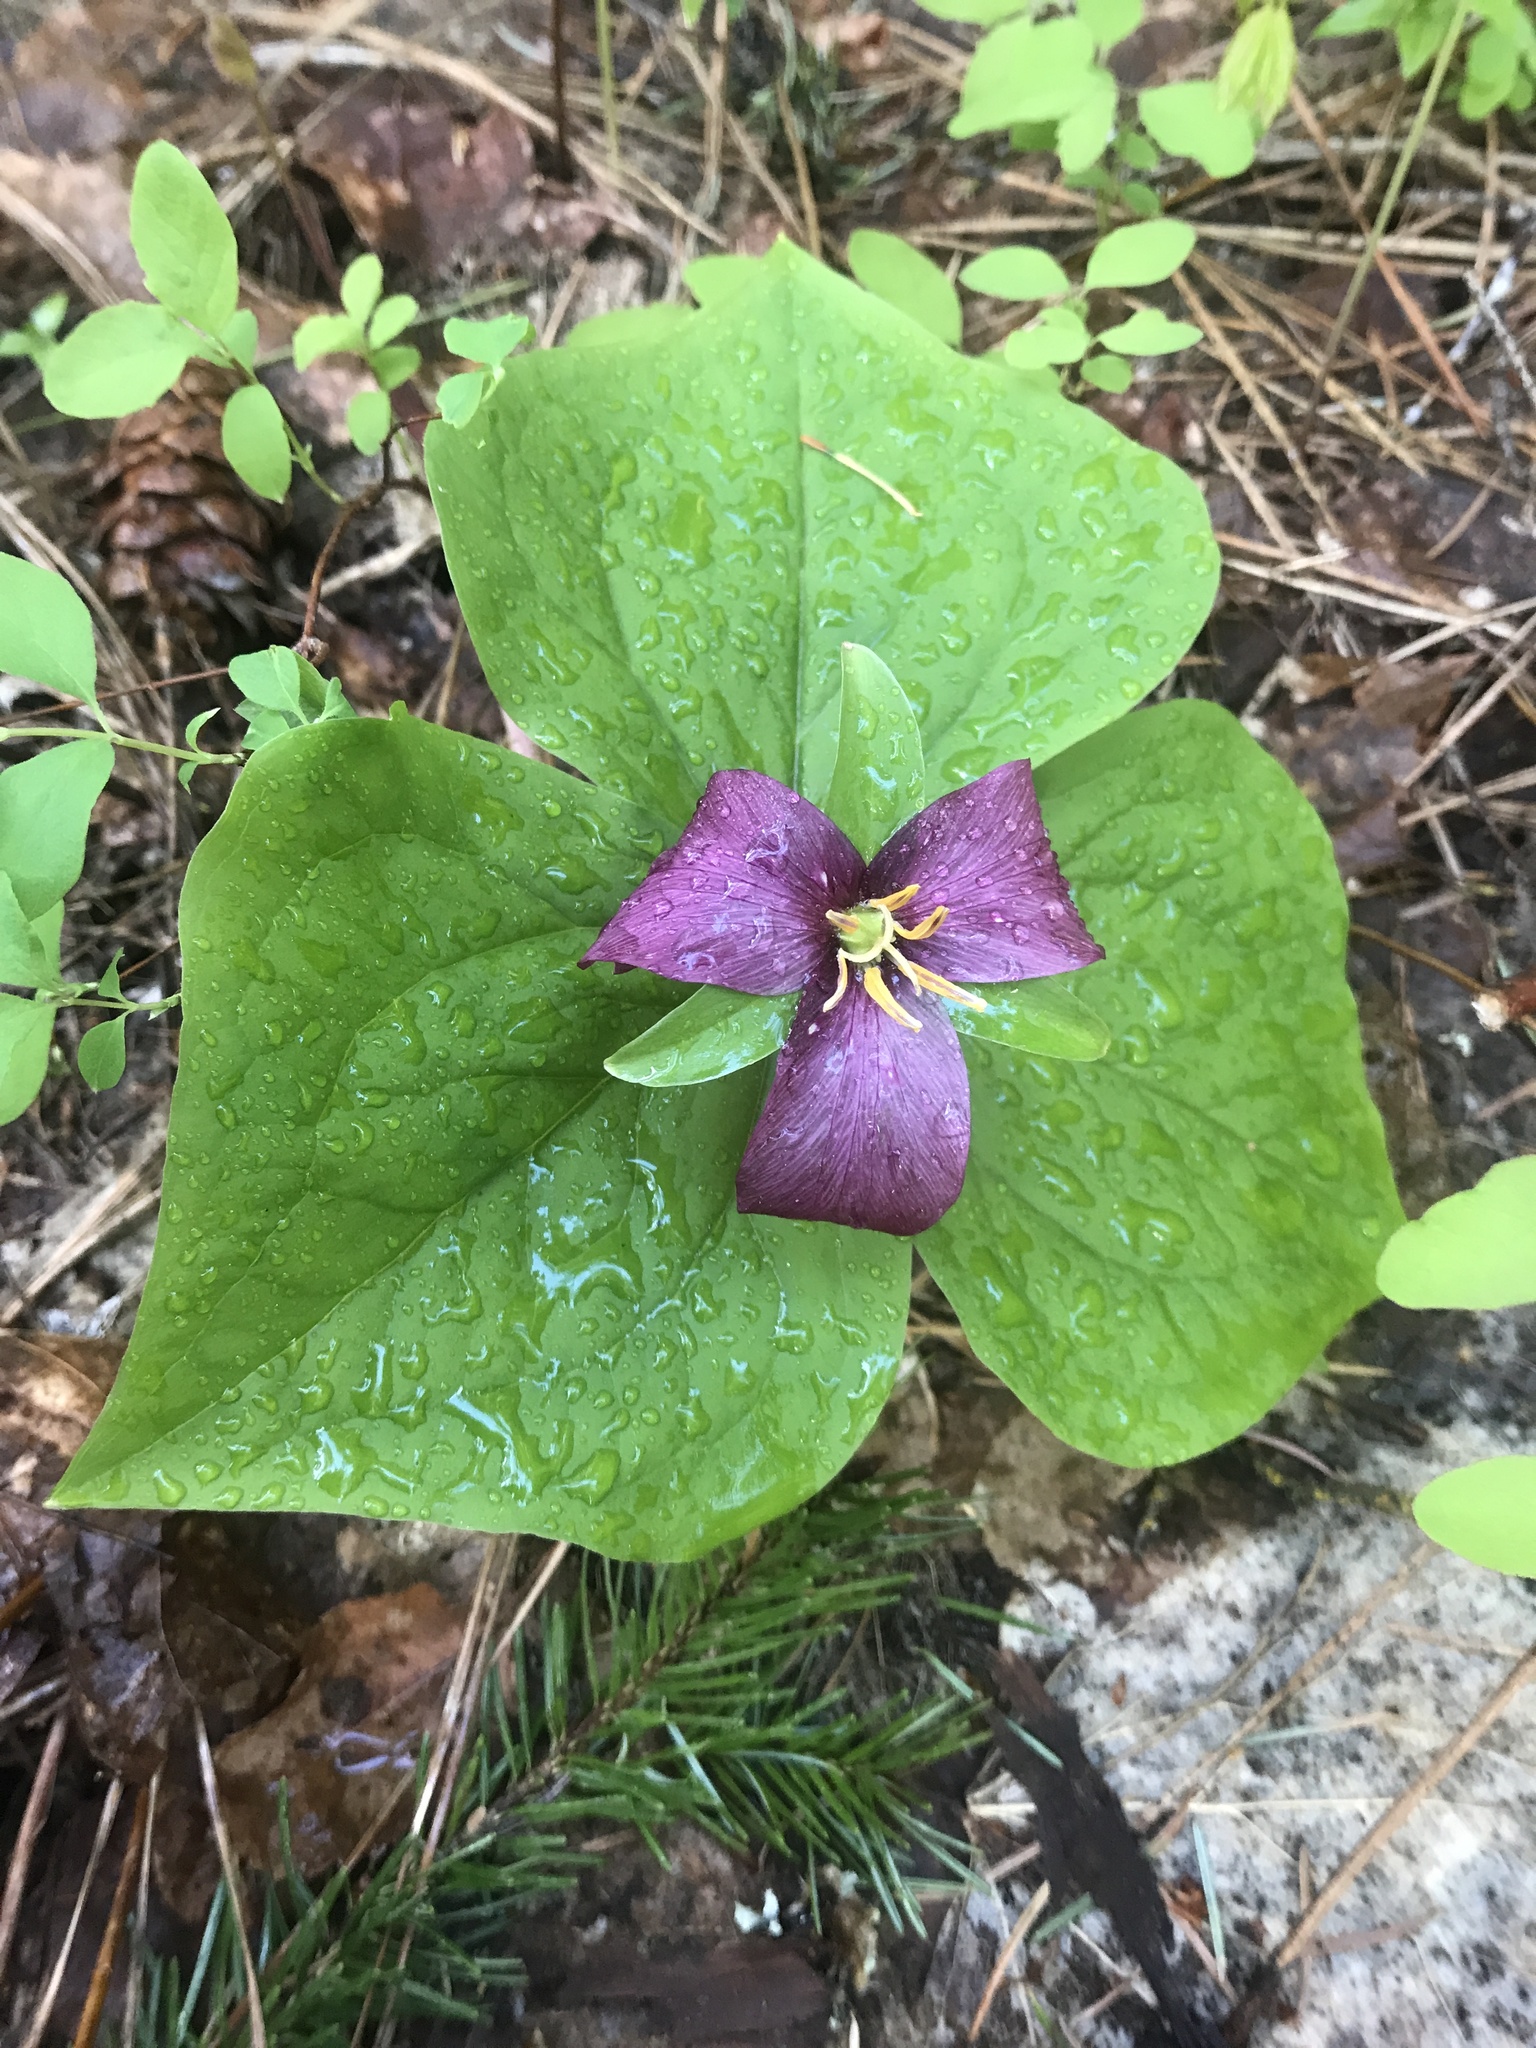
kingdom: Plantae
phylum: Tracheophyta
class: Liliopsida
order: Liliales
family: Melanthiaceae
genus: Trillium
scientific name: Trillium ovatum
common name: Pacific trillium
